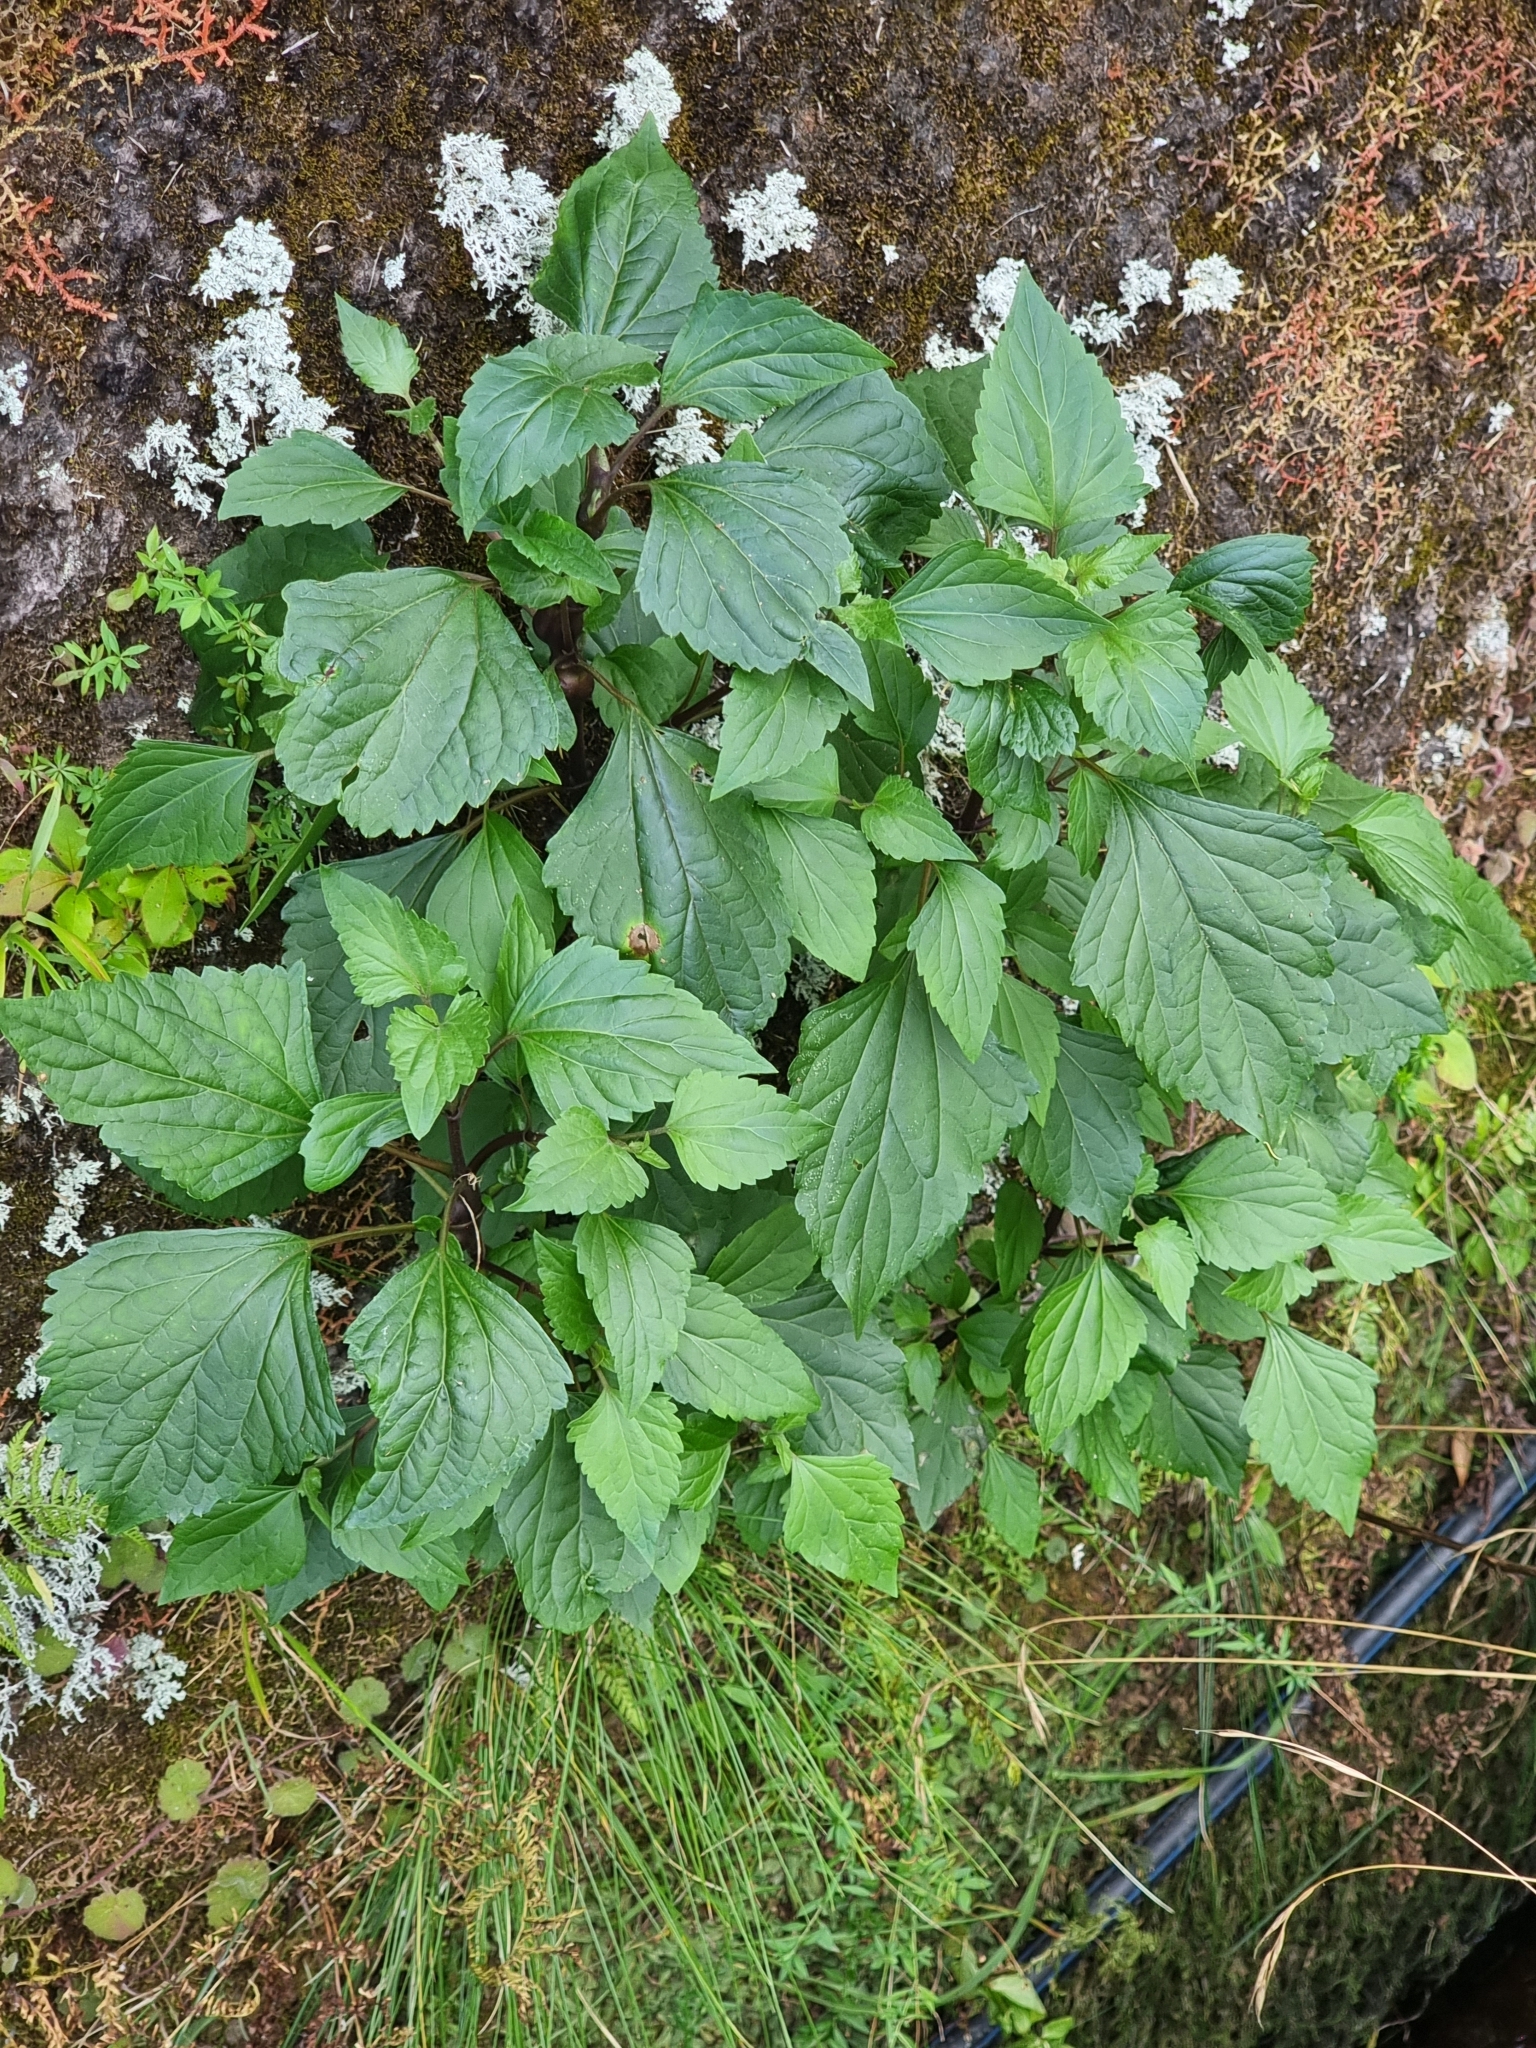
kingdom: Plantae
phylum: Tracheophyta
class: Magnoliopsida
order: Asterales
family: Asteraceae
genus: Ageratina
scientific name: Ageratina adenophora
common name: Sticky snakeroot
